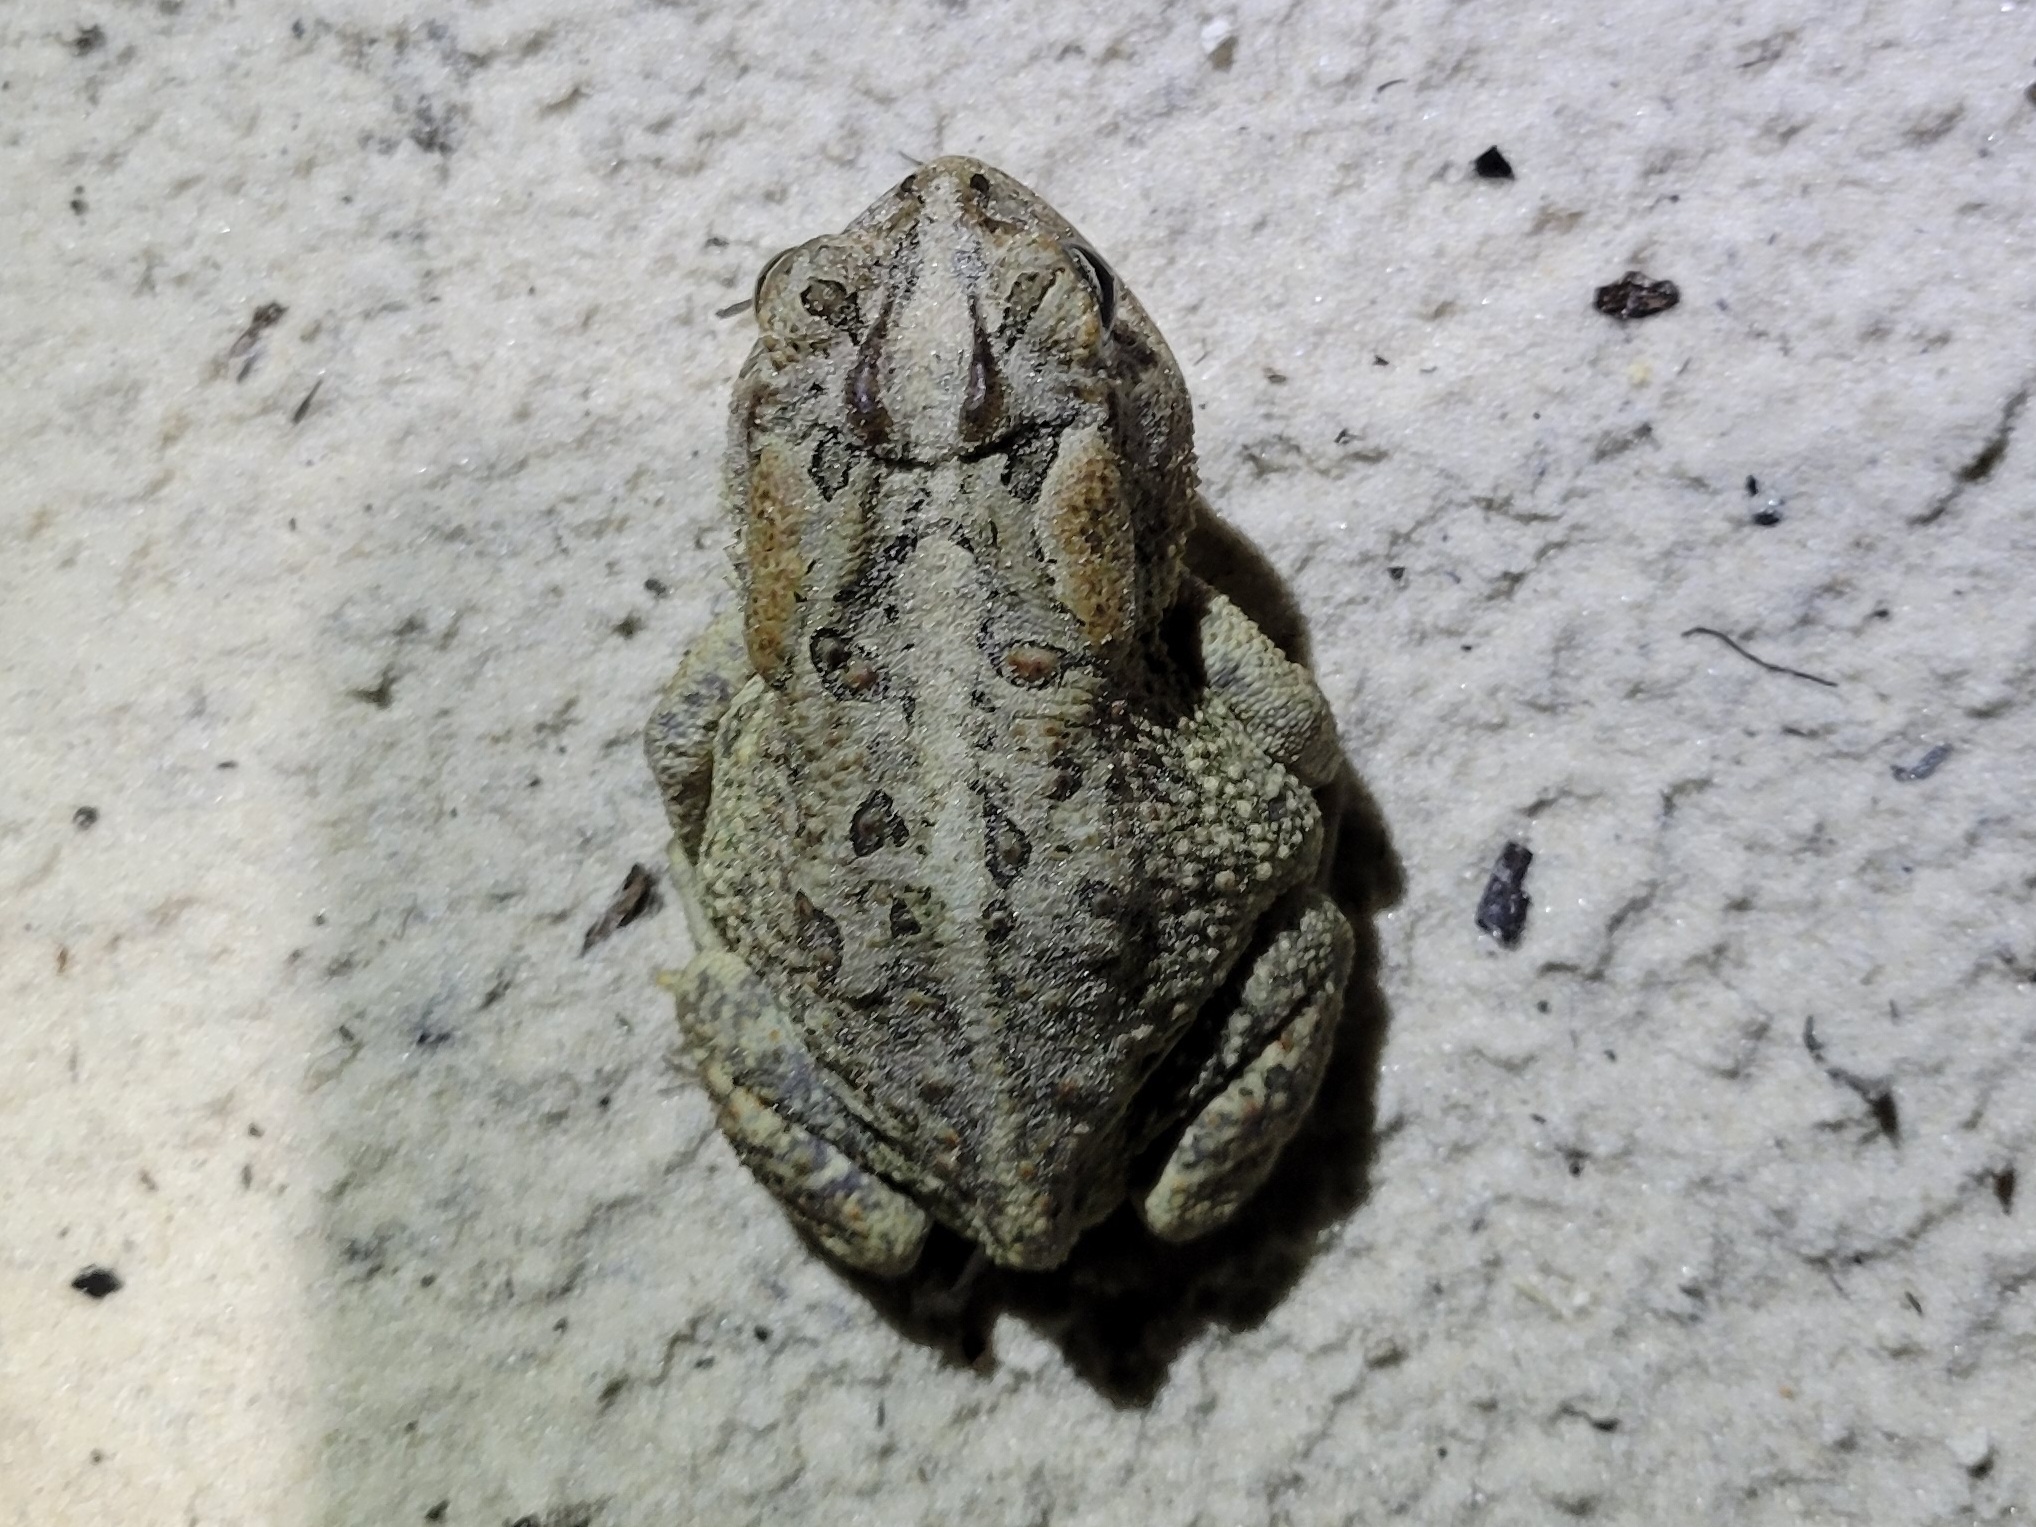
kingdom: Animalia
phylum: Chordata
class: Amphibia
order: Anura
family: Bufonidae
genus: Anaxyrus
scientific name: Anaxyrus terrestris
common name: Southern toad
